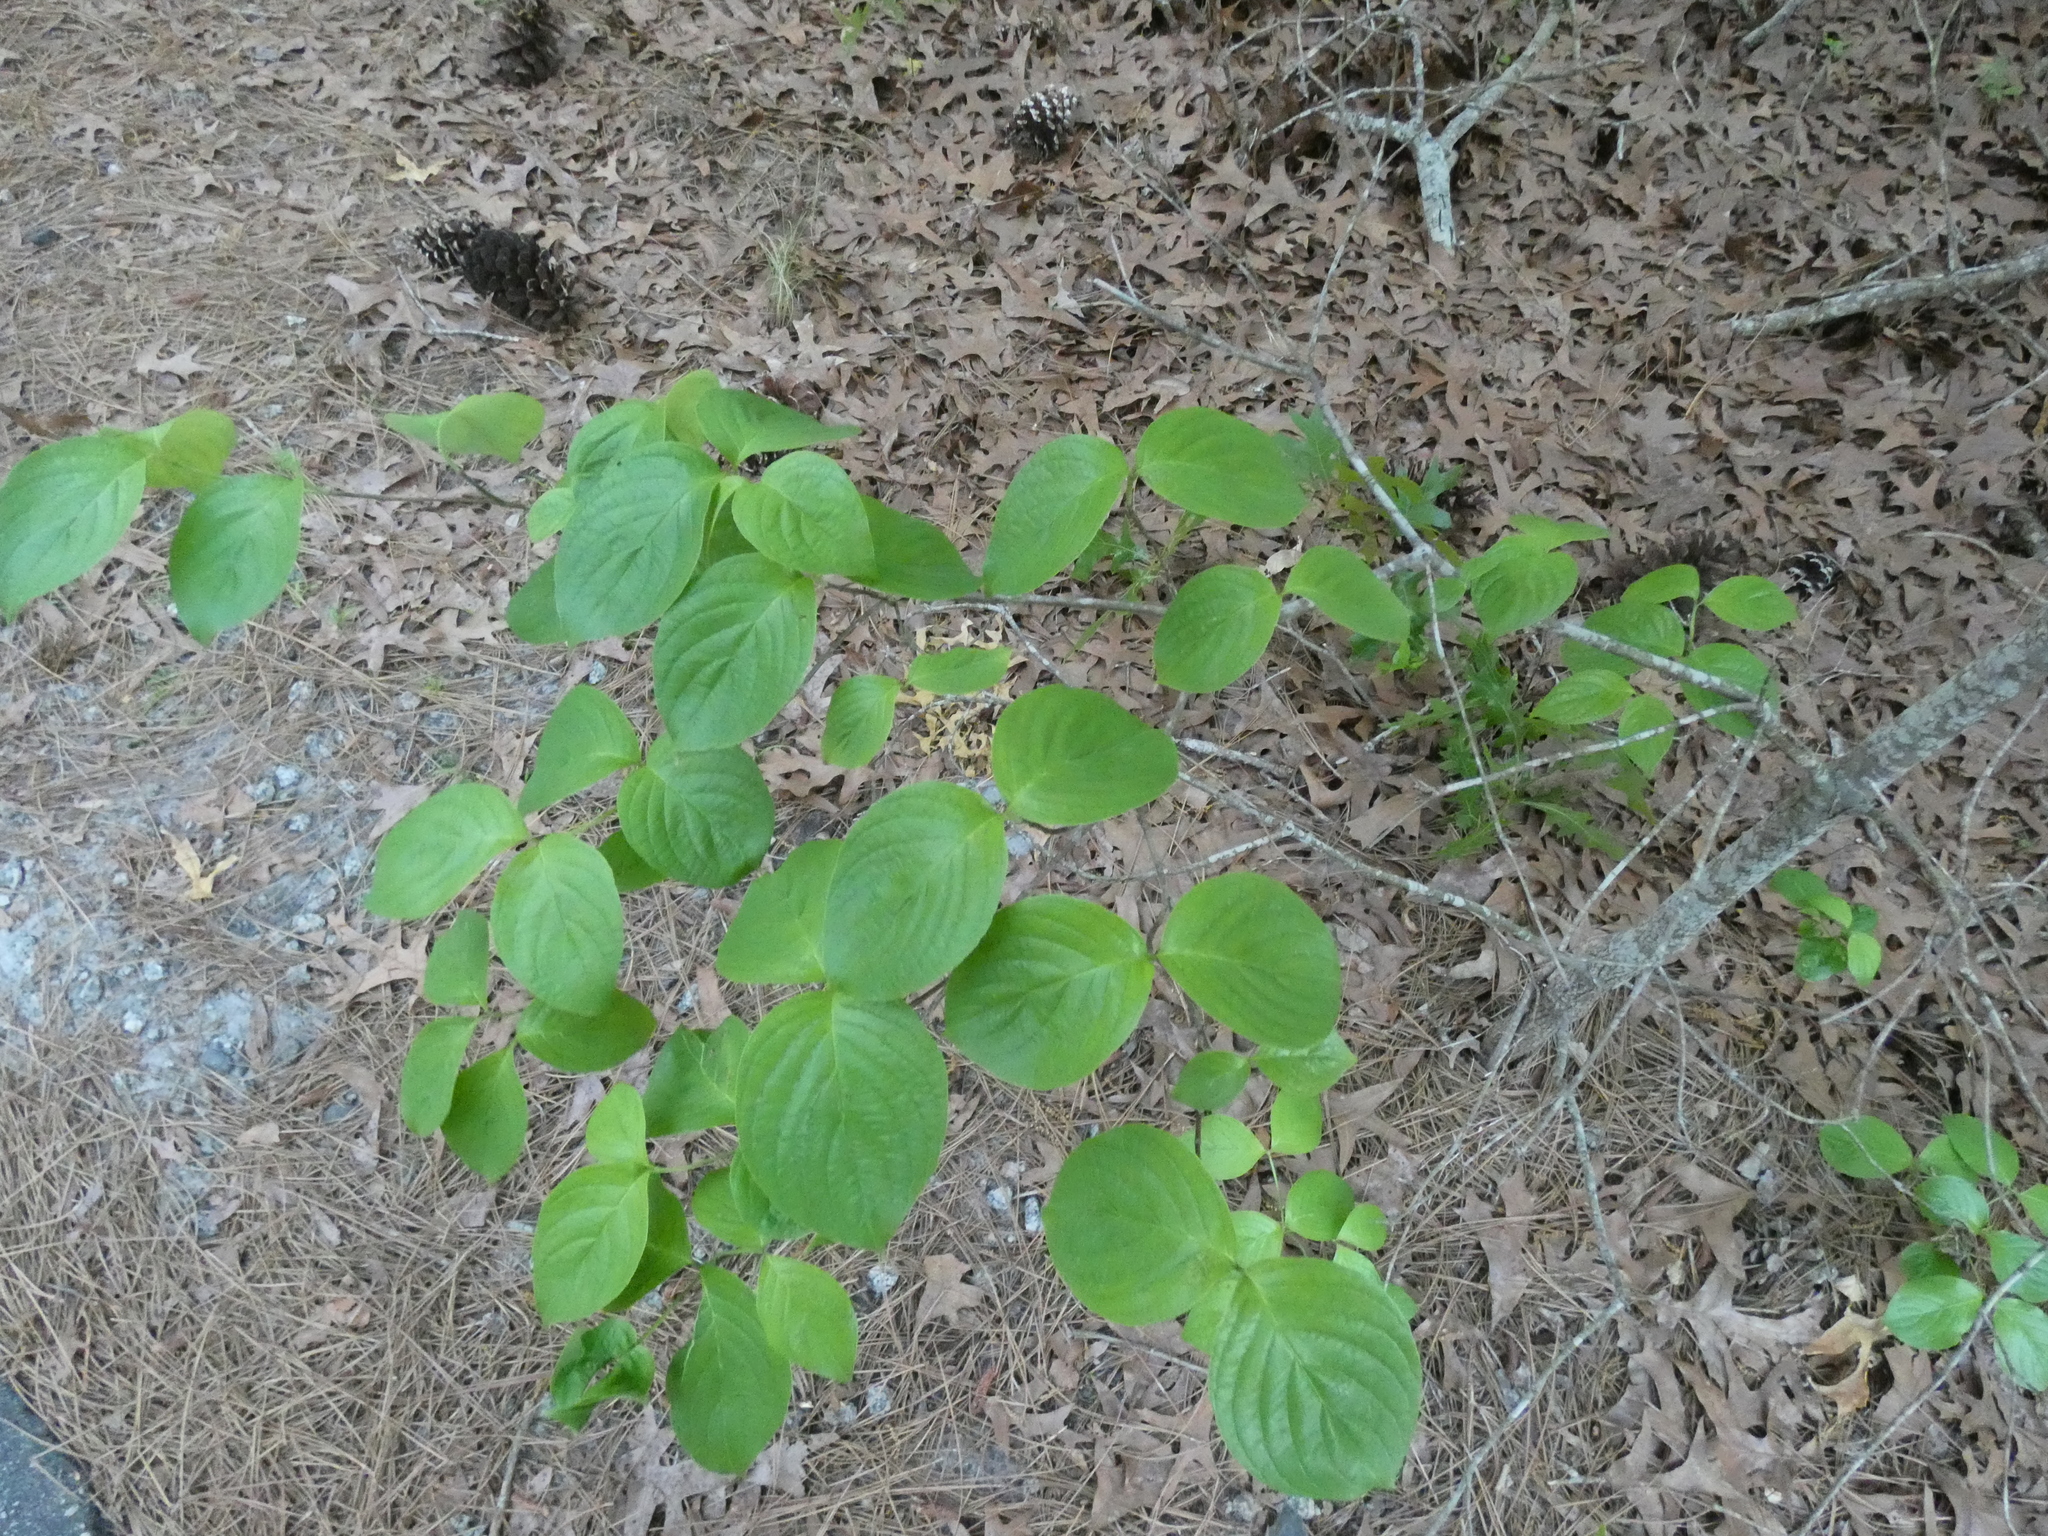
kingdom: Plantae
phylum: Tracheophyta
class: Magnoliopsida
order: Cornales
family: Cornaceae
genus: Cornus
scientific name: Cornus florida
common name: Flowering dogwood
